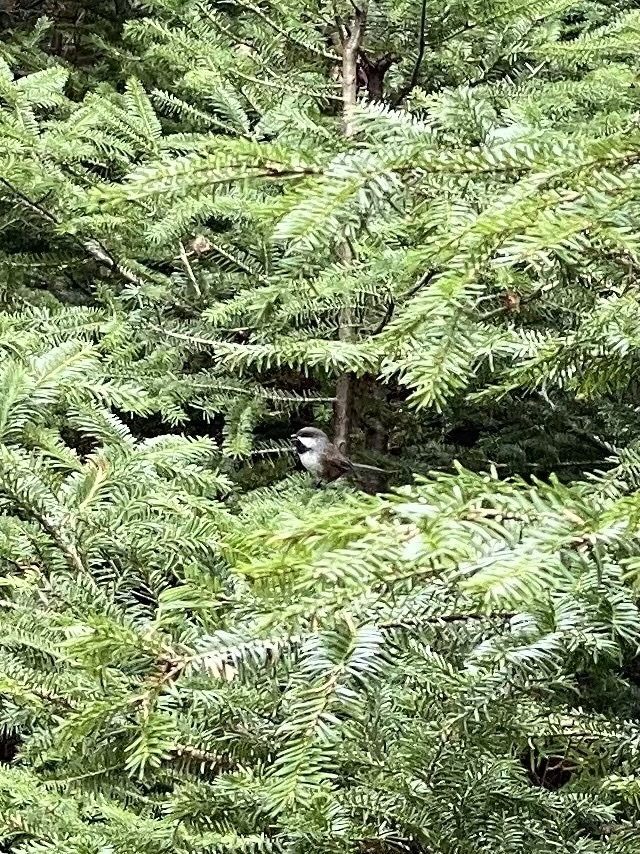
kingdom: Animalia
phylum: Chordata
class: Aves
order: Passeriformes
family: Paridae
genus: Poecile
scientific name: Poecile hudsonicus
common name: Boreal chickadee
